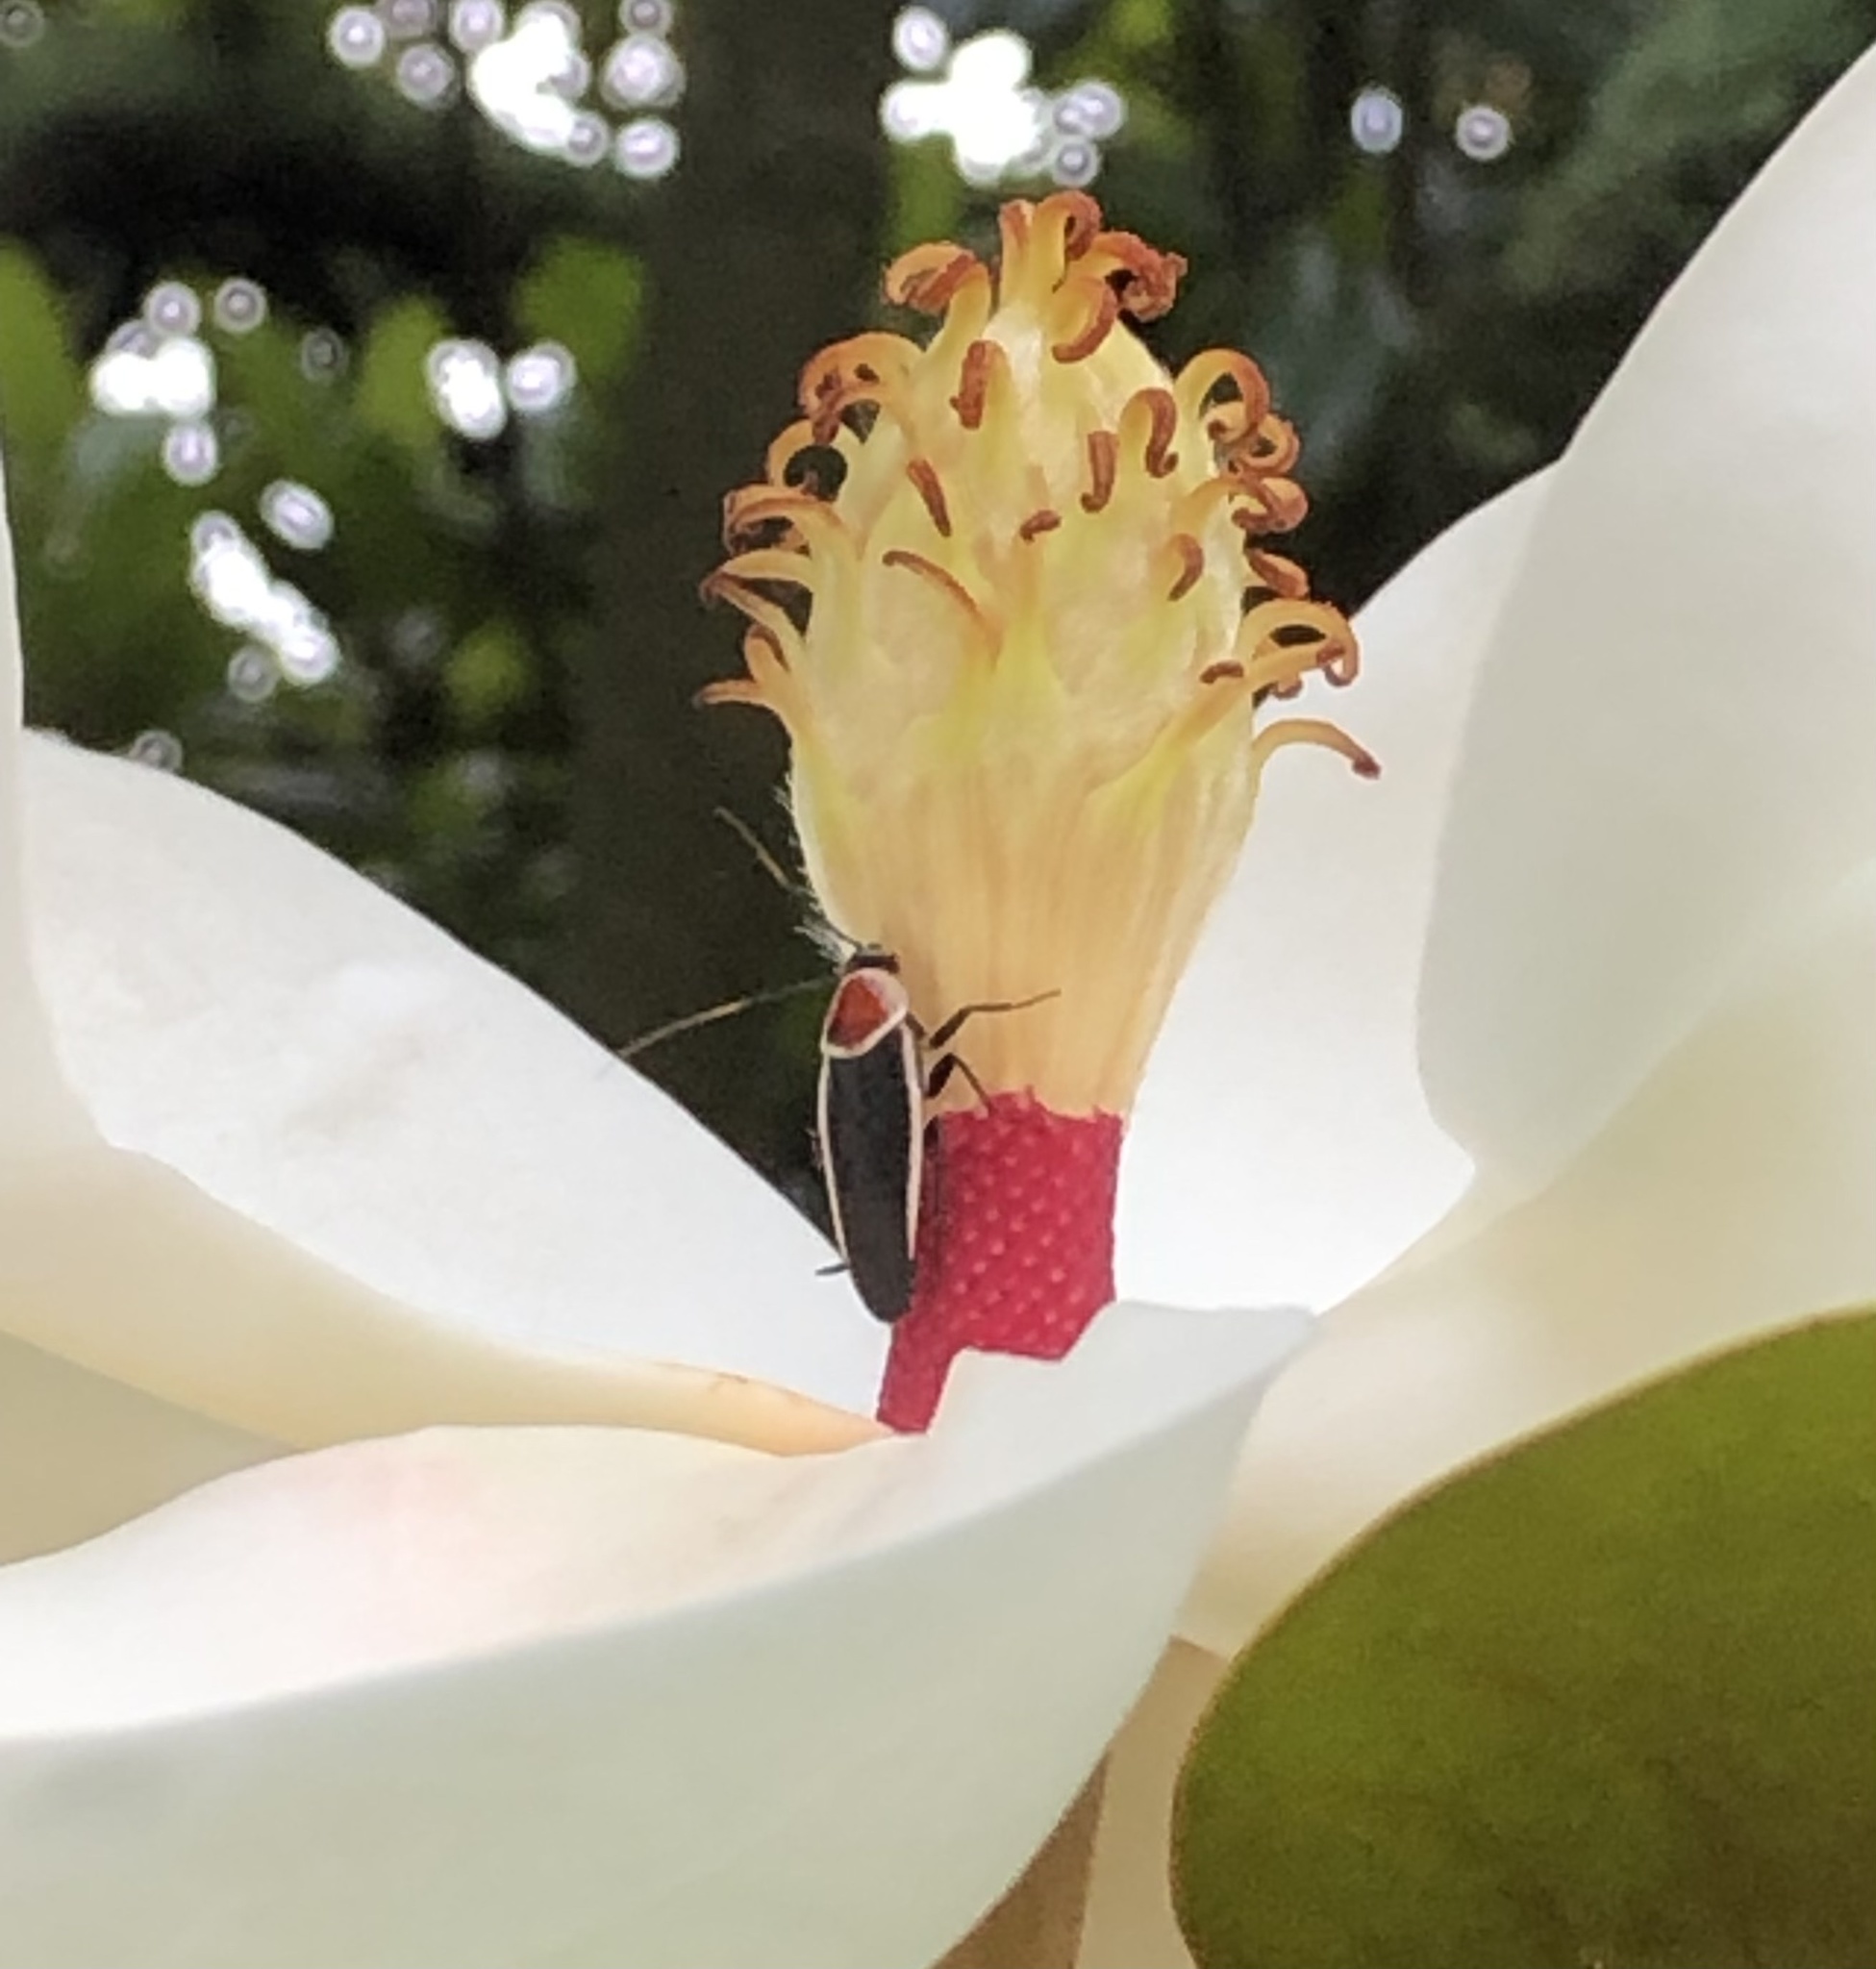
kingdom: Animalia
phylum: Arthropoda
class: Insecta
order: Blattodea
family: Ectobiidae
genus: Pseudomops
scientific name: Pseudomops septentrionalis
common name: Pale-bordered field cockroach
